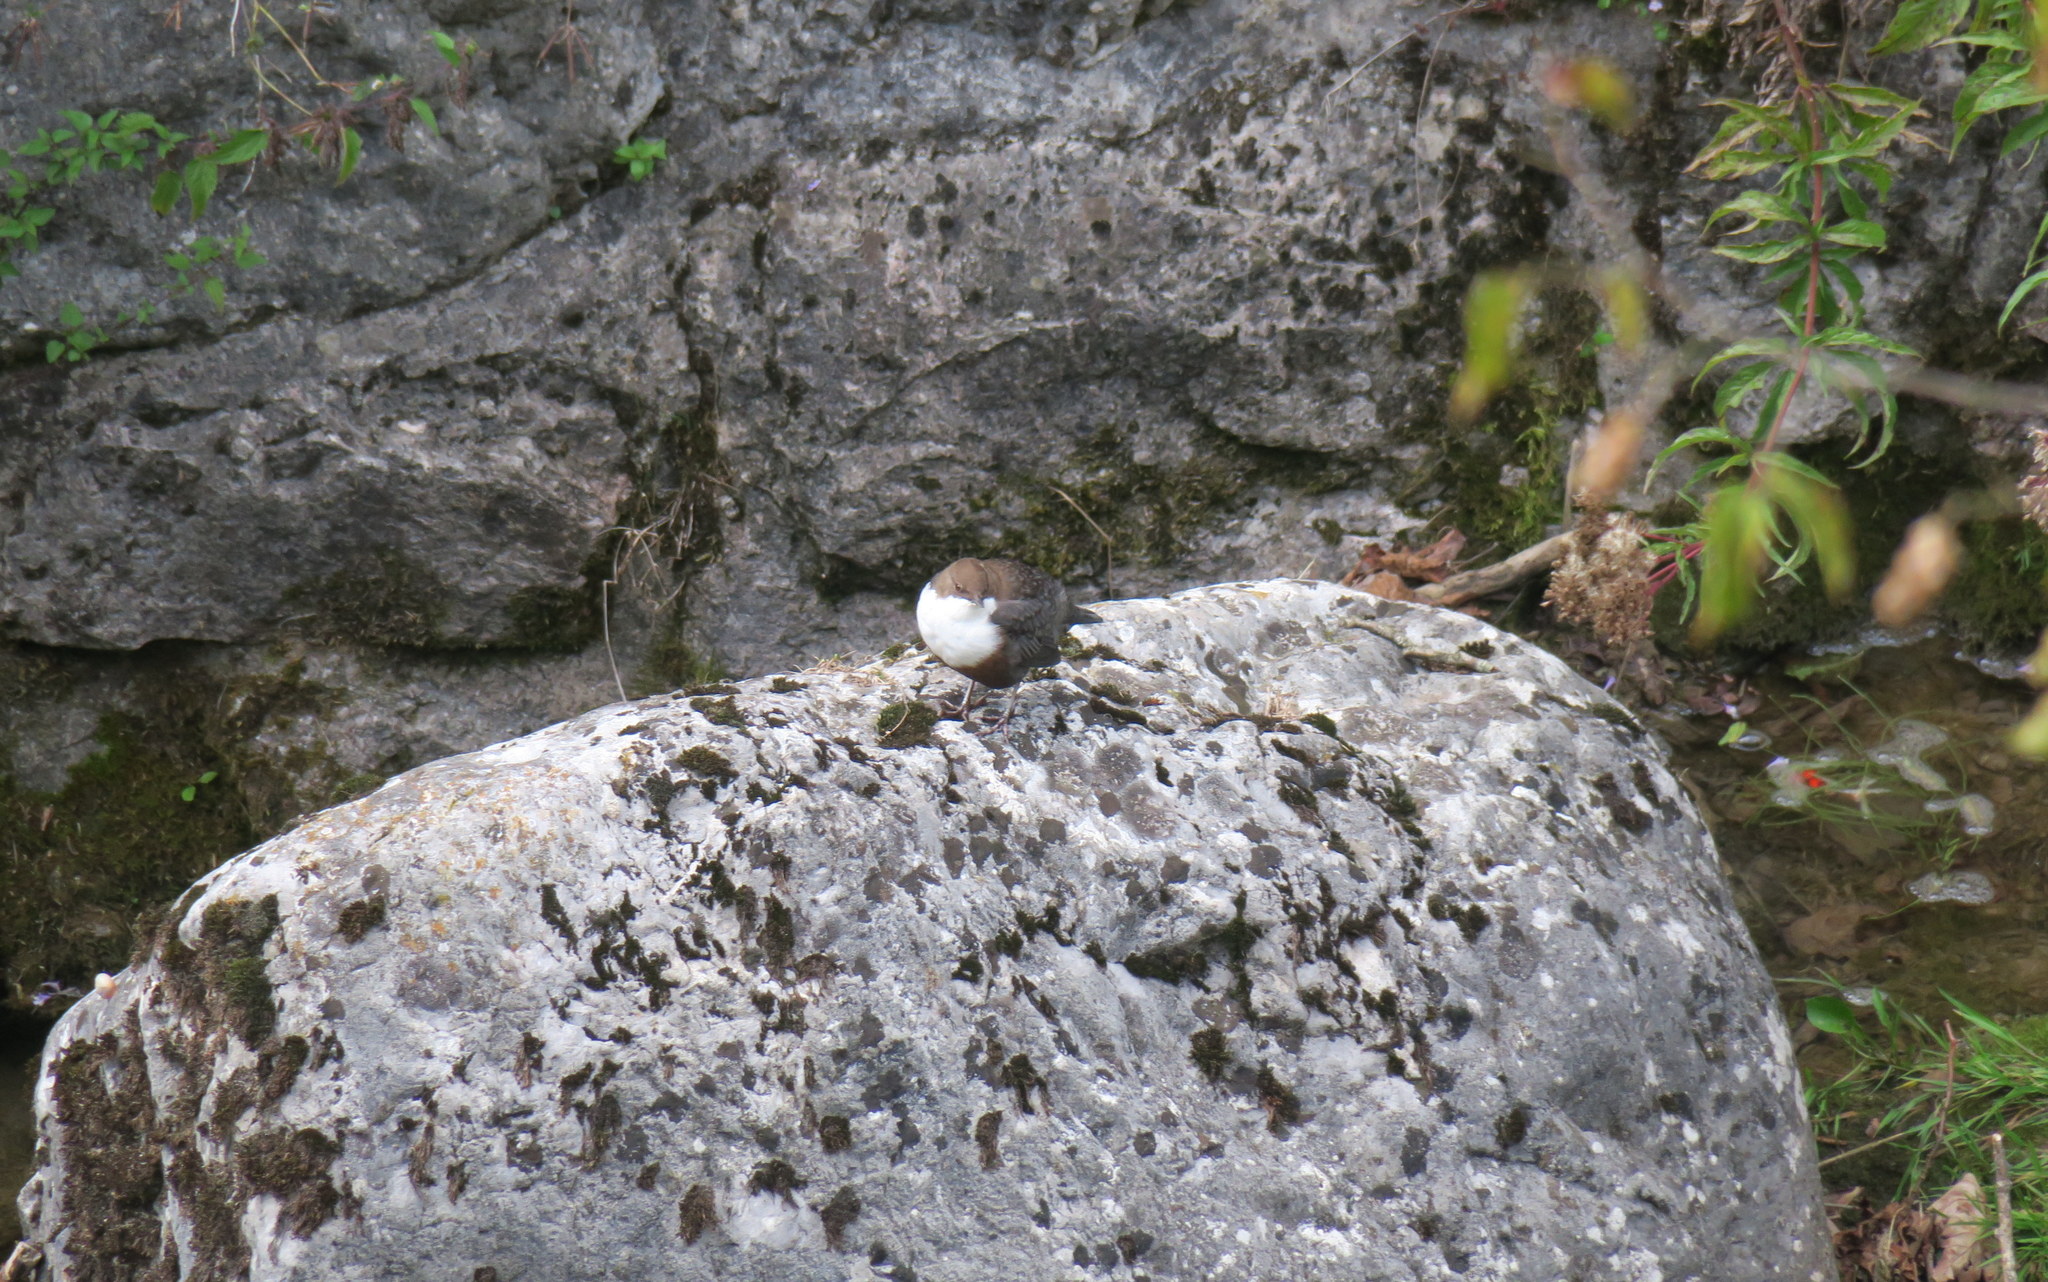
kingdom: Animalia
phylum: Chordata
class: Aves
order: Passeriformes
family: Cinclidae
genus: Cinclus
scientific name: Cinclus cinclus
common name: White-throated dipper
